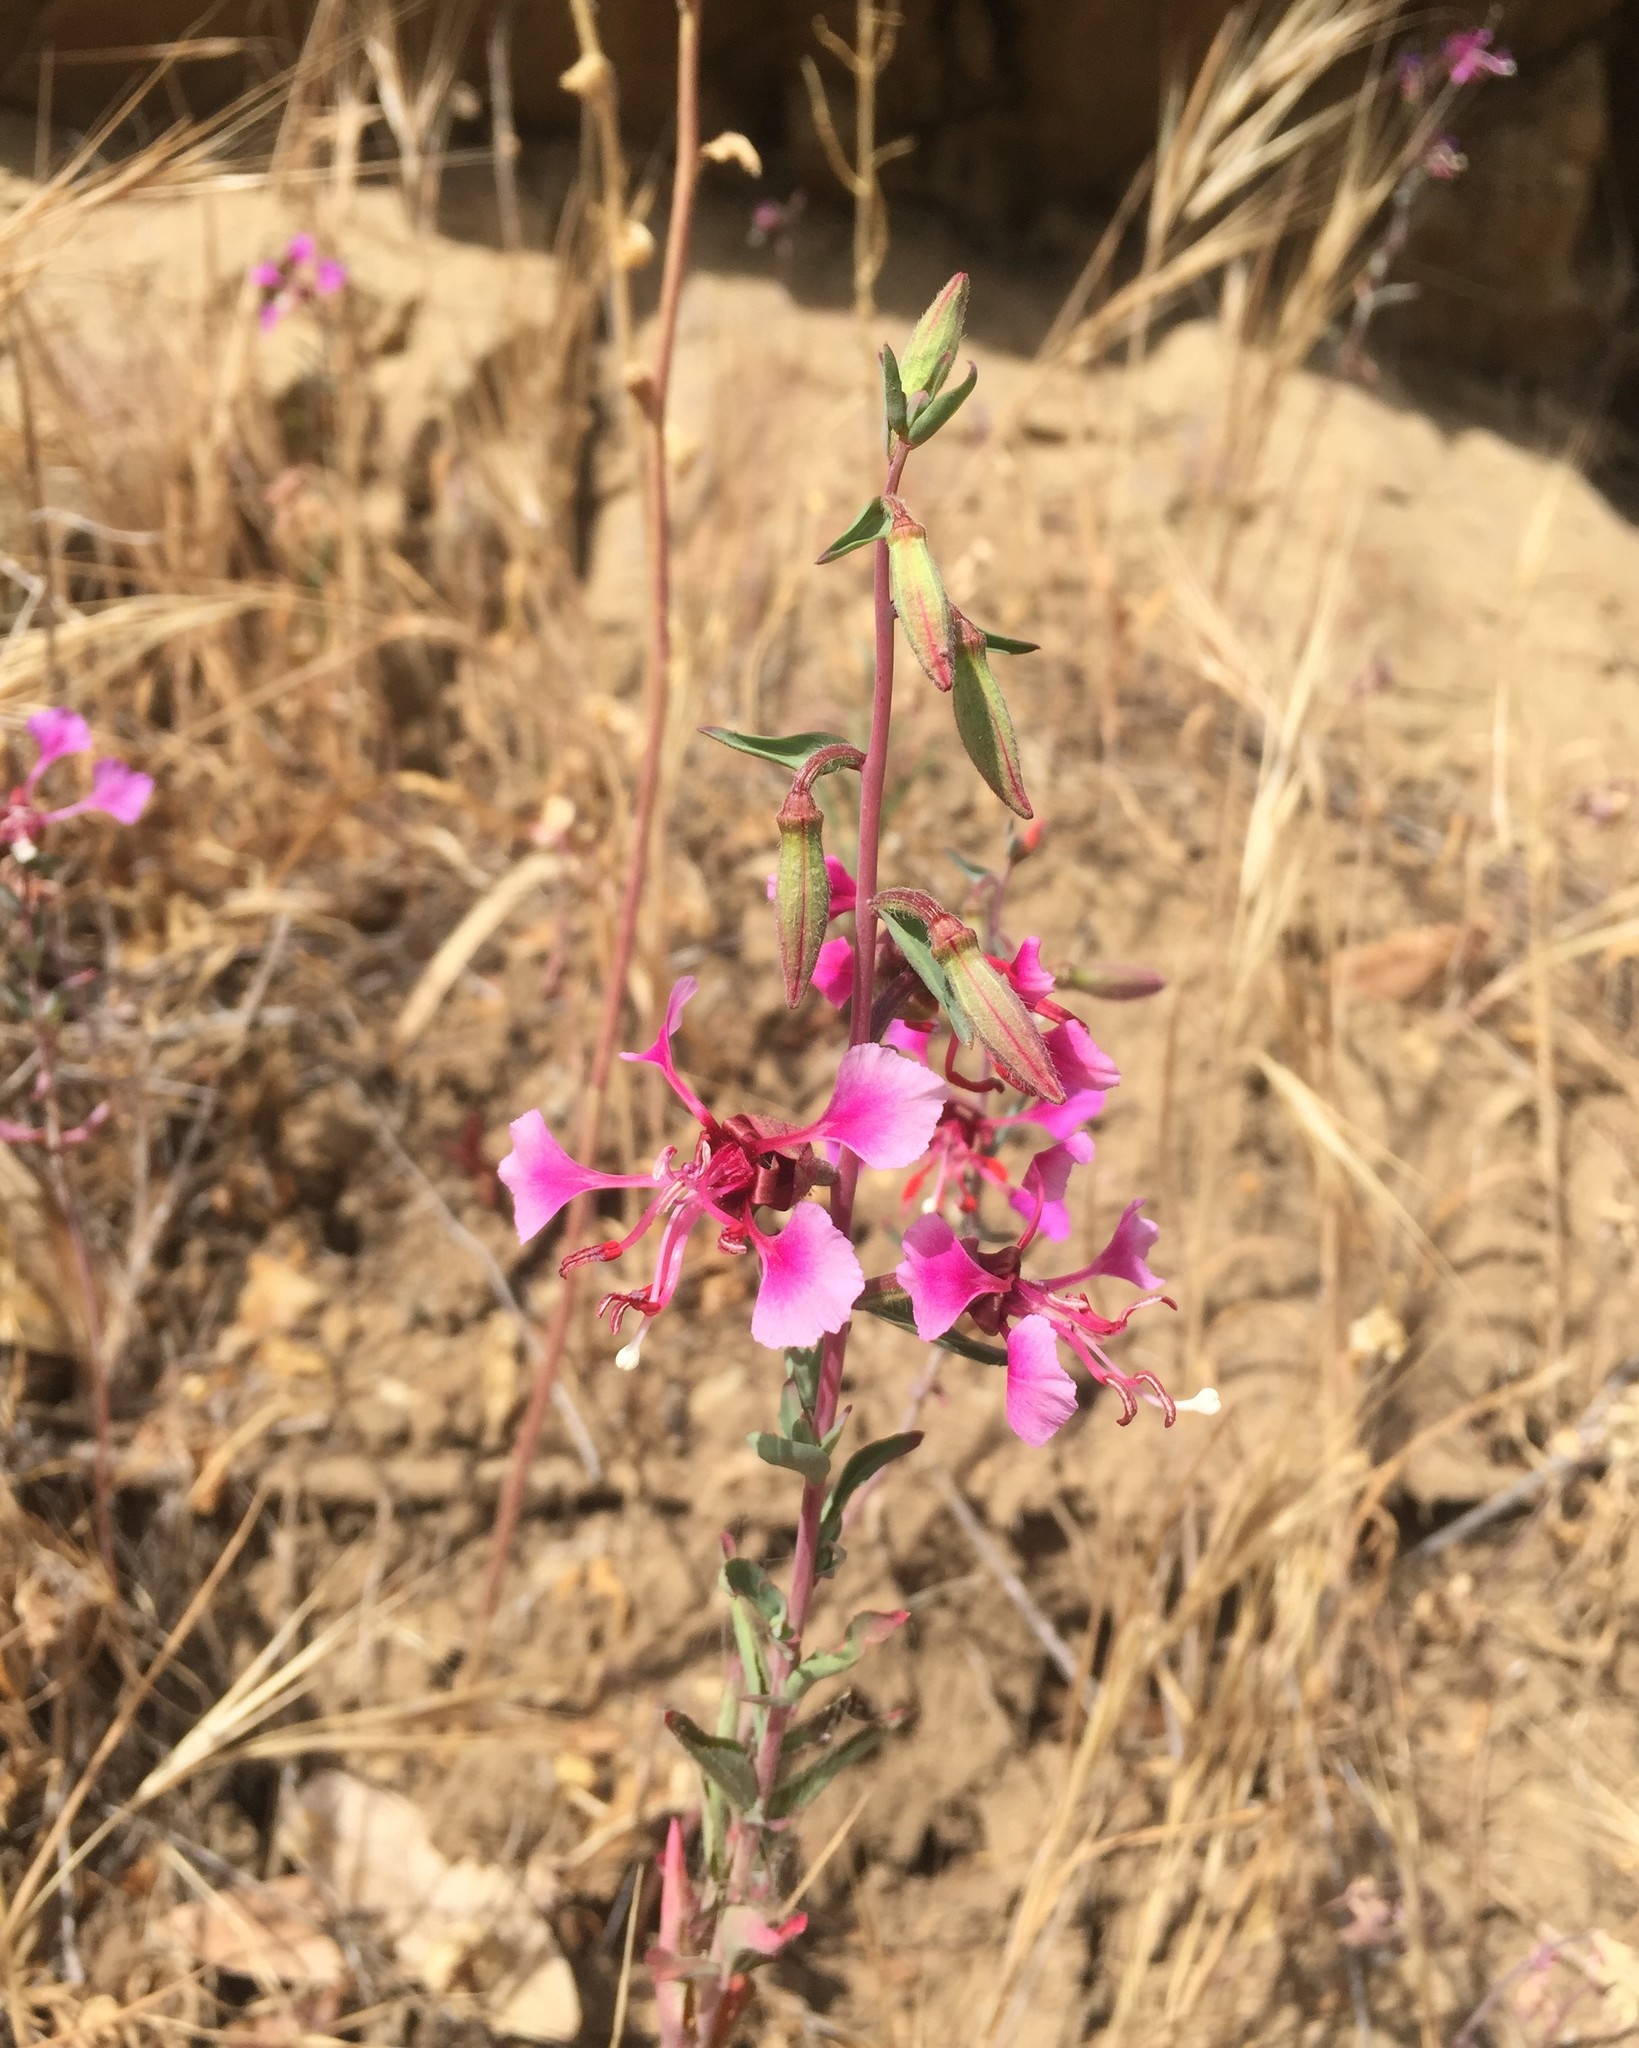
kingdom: Plantae
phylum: Tracheophyta
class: Magnoliopsida
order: Myrtales
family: Onagraceae
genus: Clarkia
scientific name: Clarkia unguiculata
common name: Clarkia
